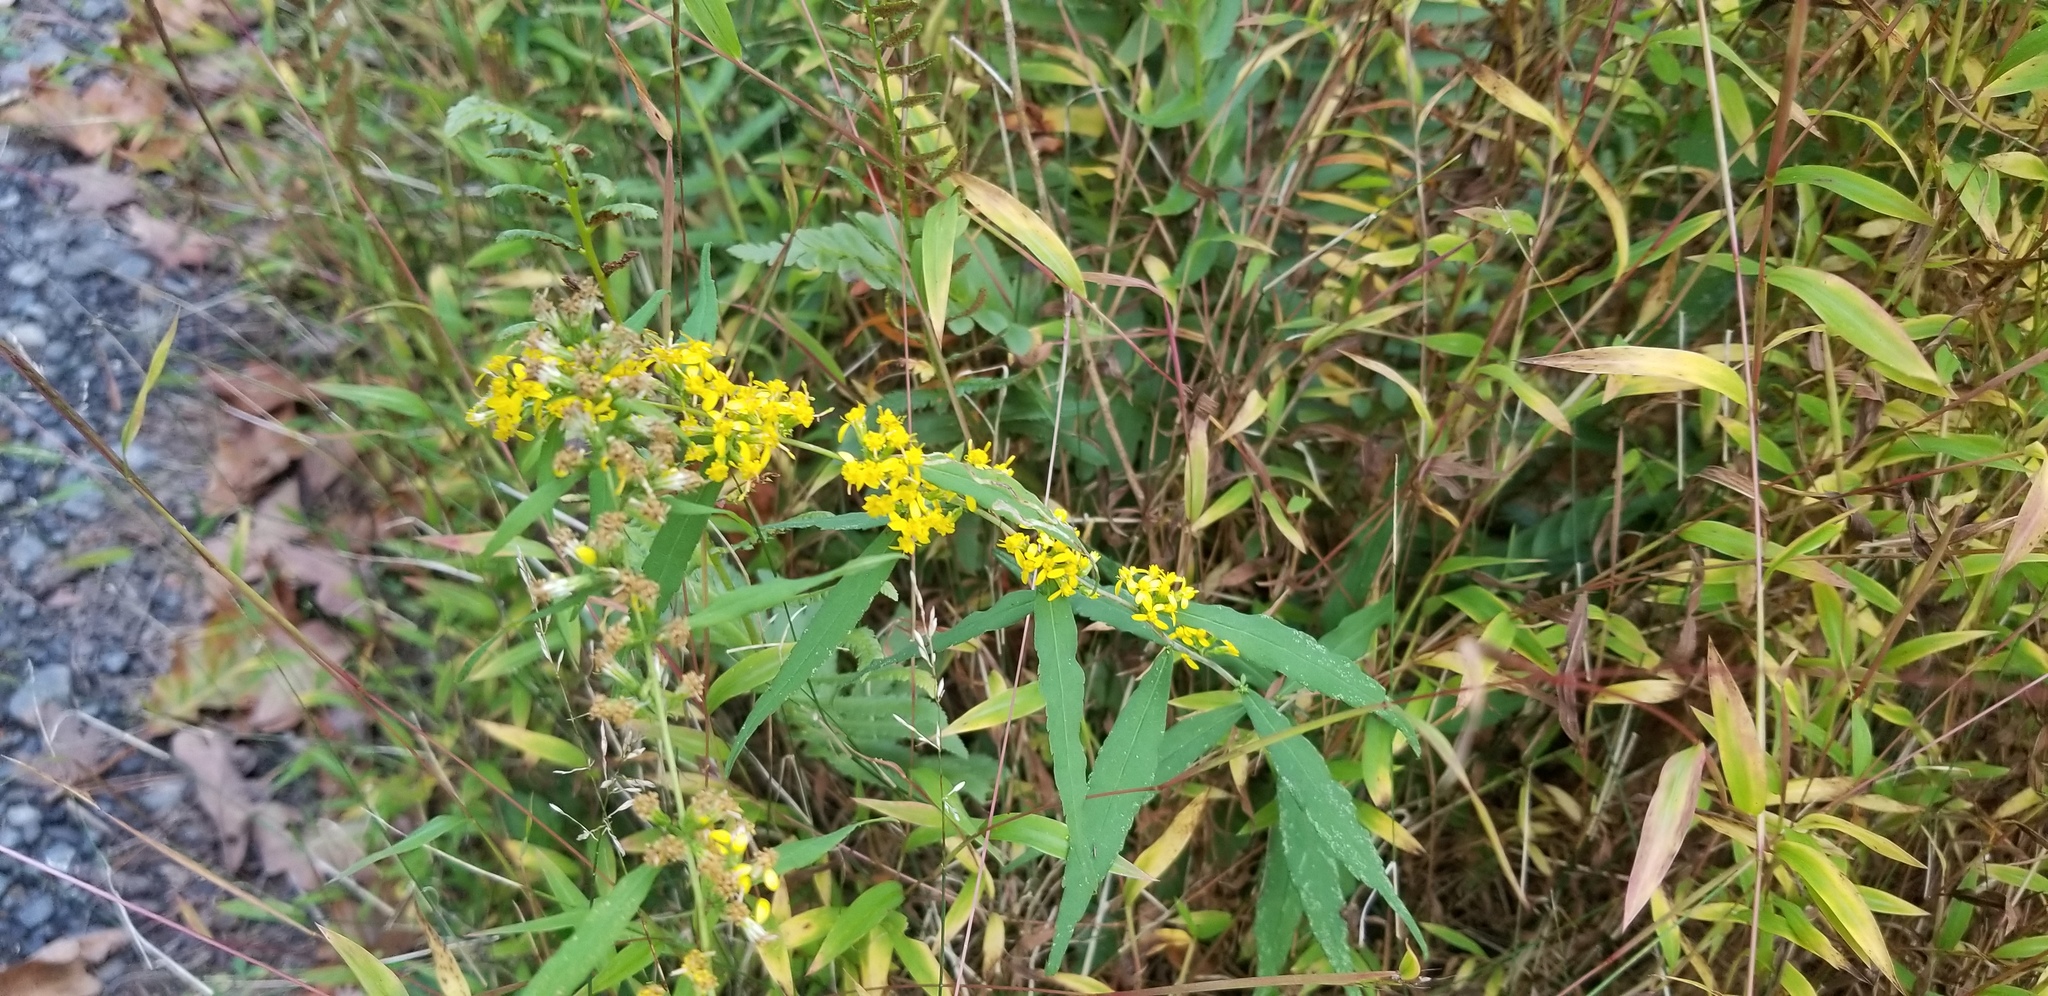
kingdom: Plantae
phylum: Tracheophyta
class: Magnoliopsida
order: Asterales
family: Asteraceae
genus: Solidago
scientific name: Solidago caesia
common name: Woodland goldenrod
